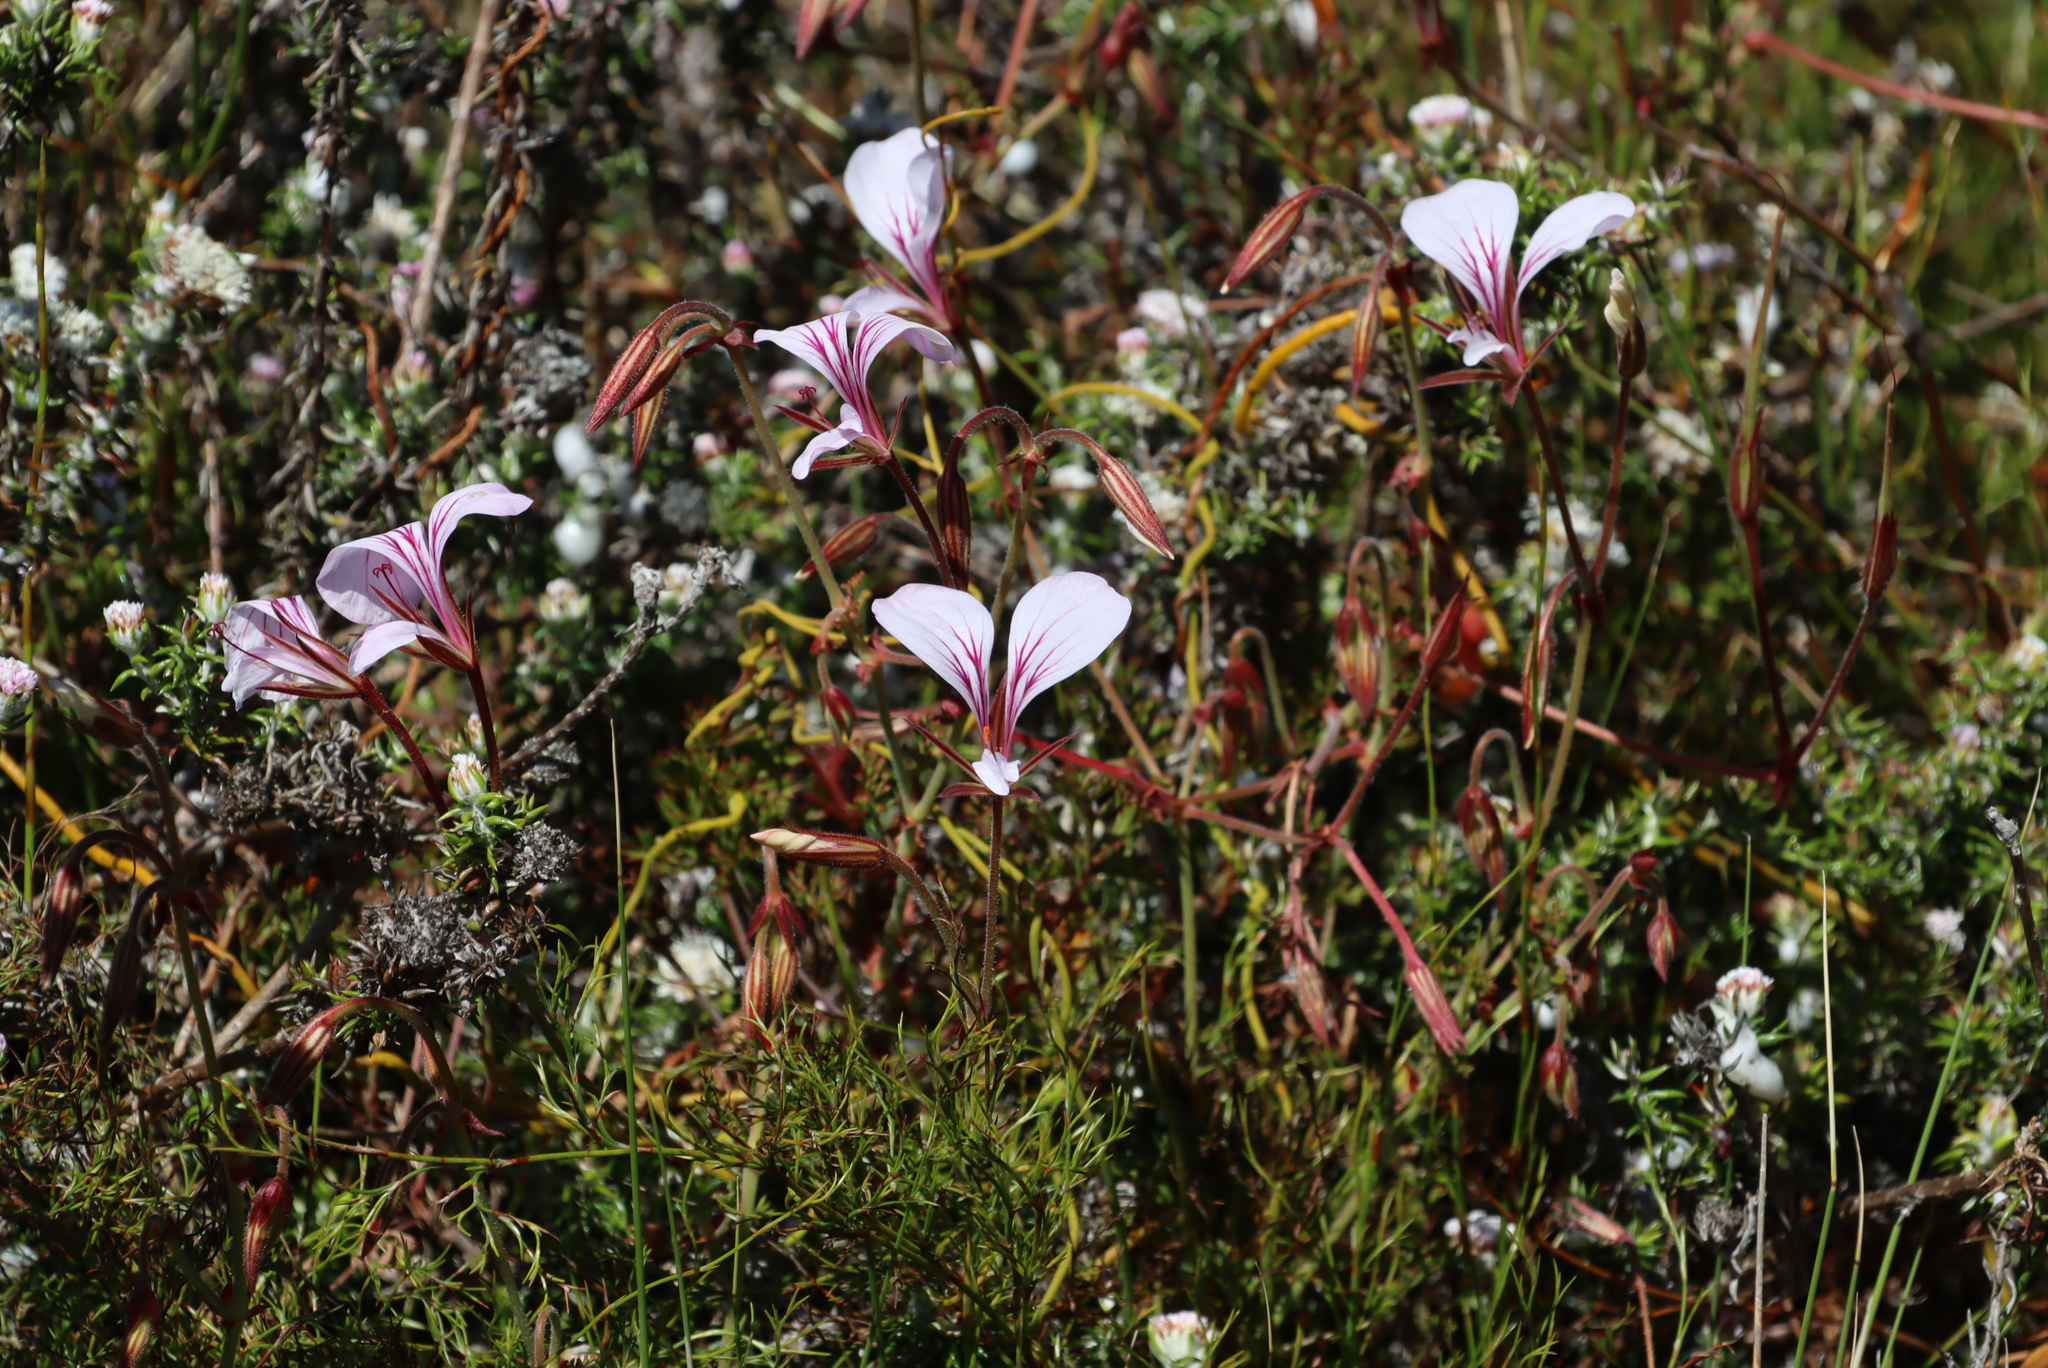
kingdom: Plantae
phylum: Tracheophyta
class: Magnoliopsida
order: Geraniales
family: Geraniaceae
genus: Pelargonium
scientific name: Pelargonium longicaule
